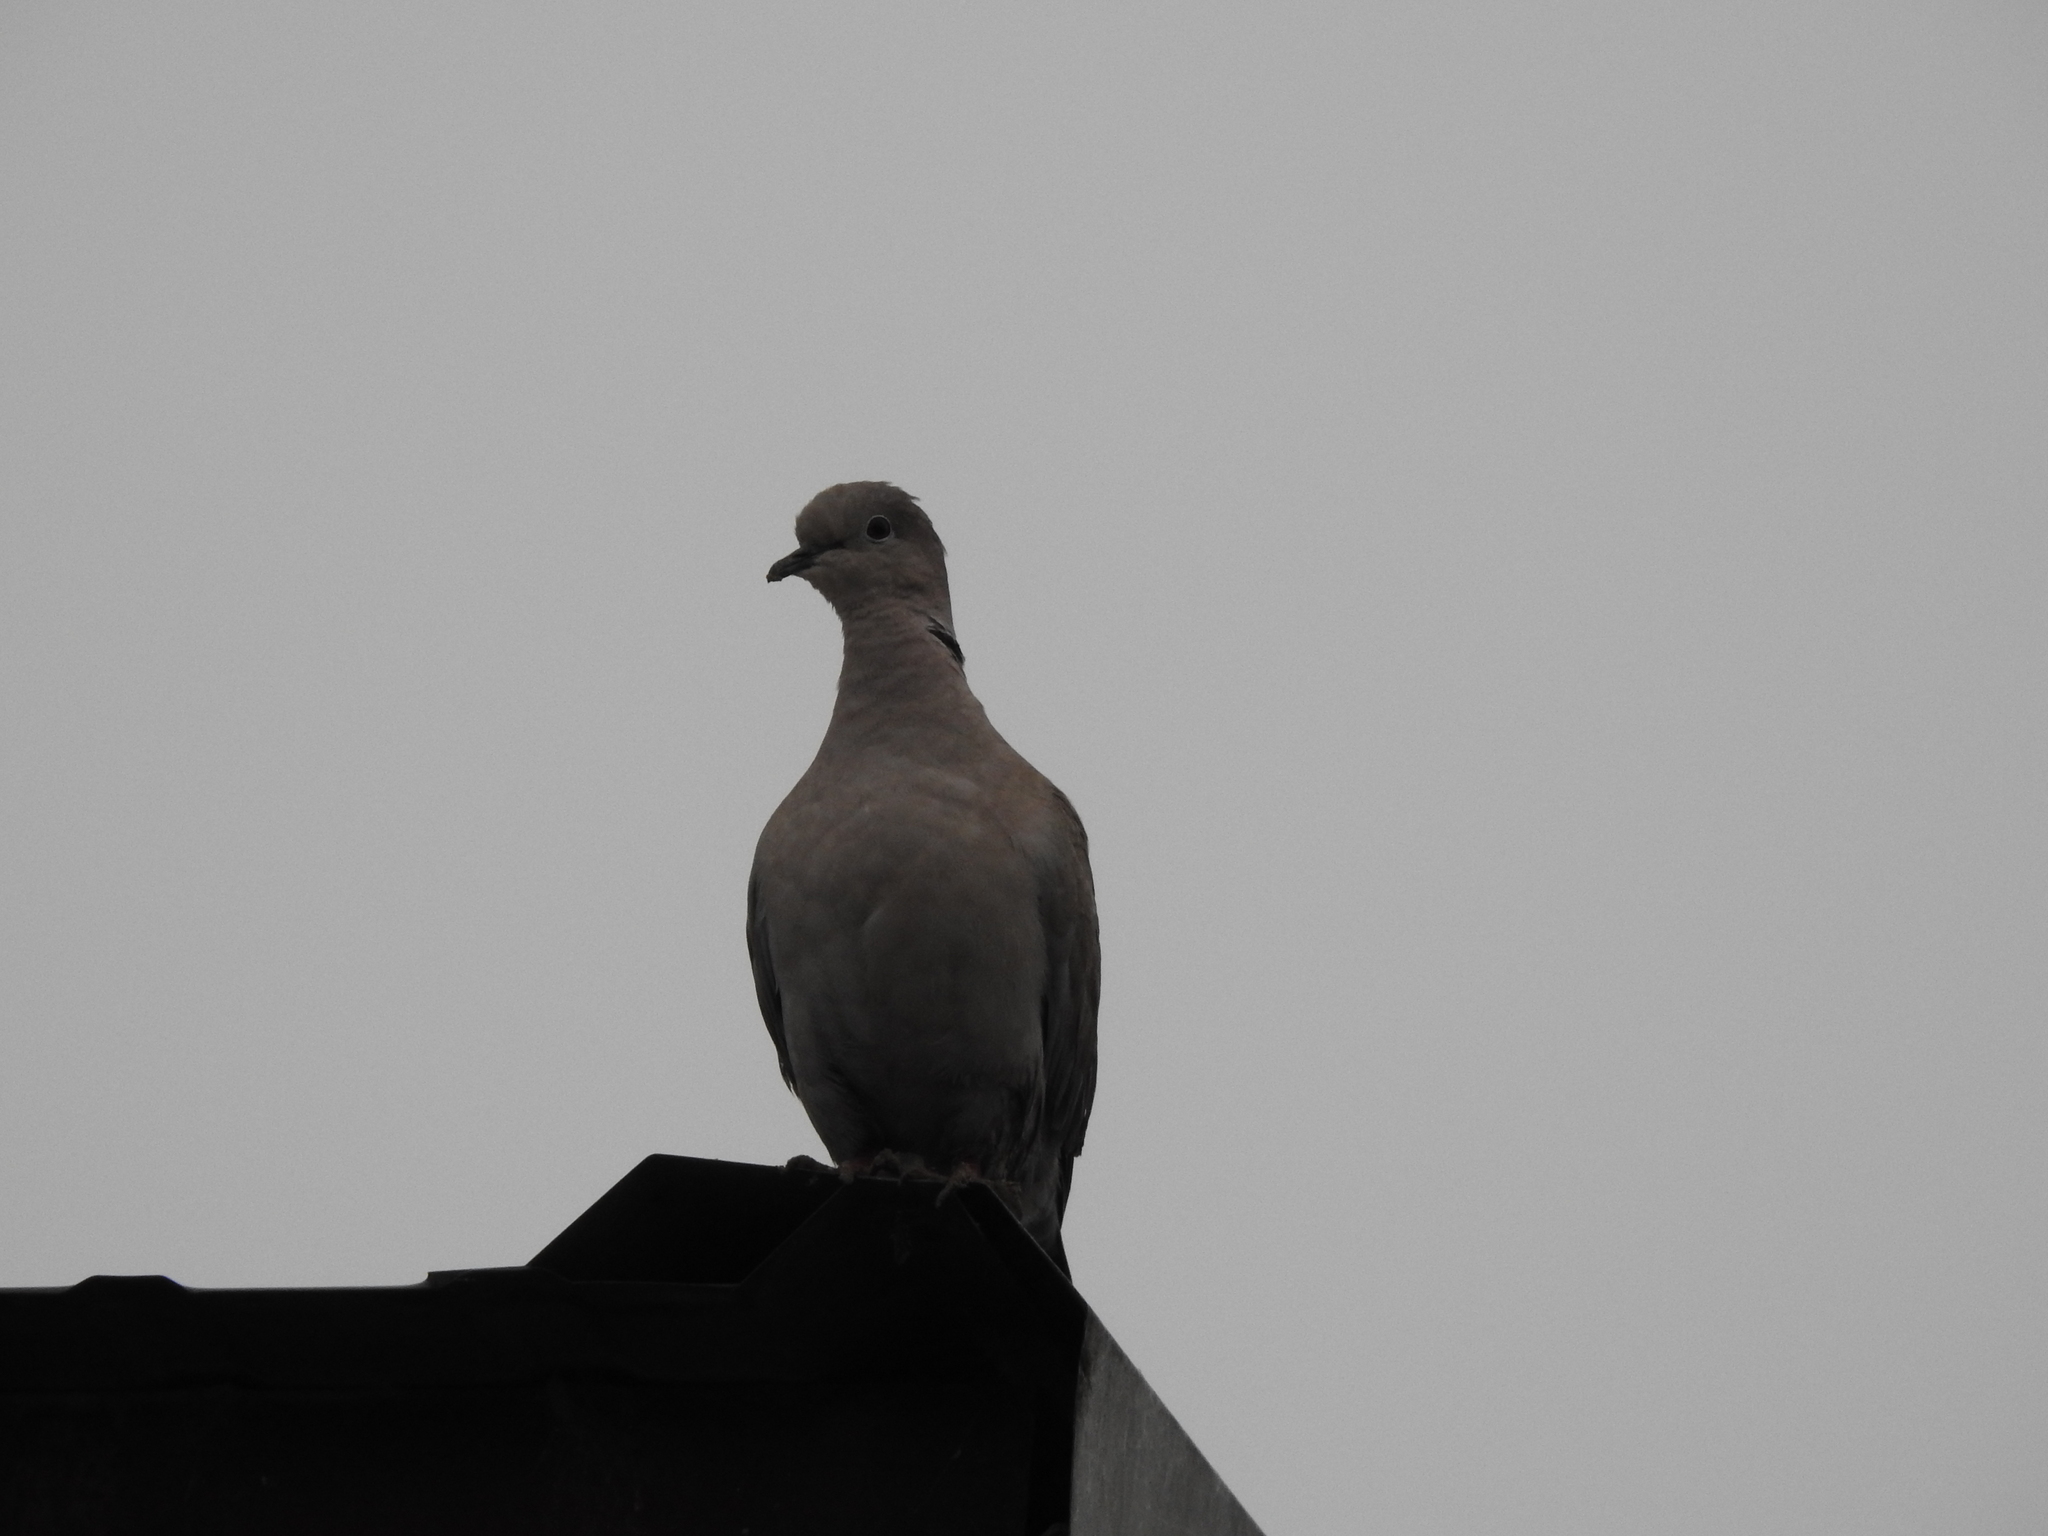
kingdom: Animalia
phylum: Chordata
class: Aves
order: Columbiformes
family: Columbidae
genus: Streptopelia
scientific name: Streptopelia decaocto
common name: Eurasian collared dove
